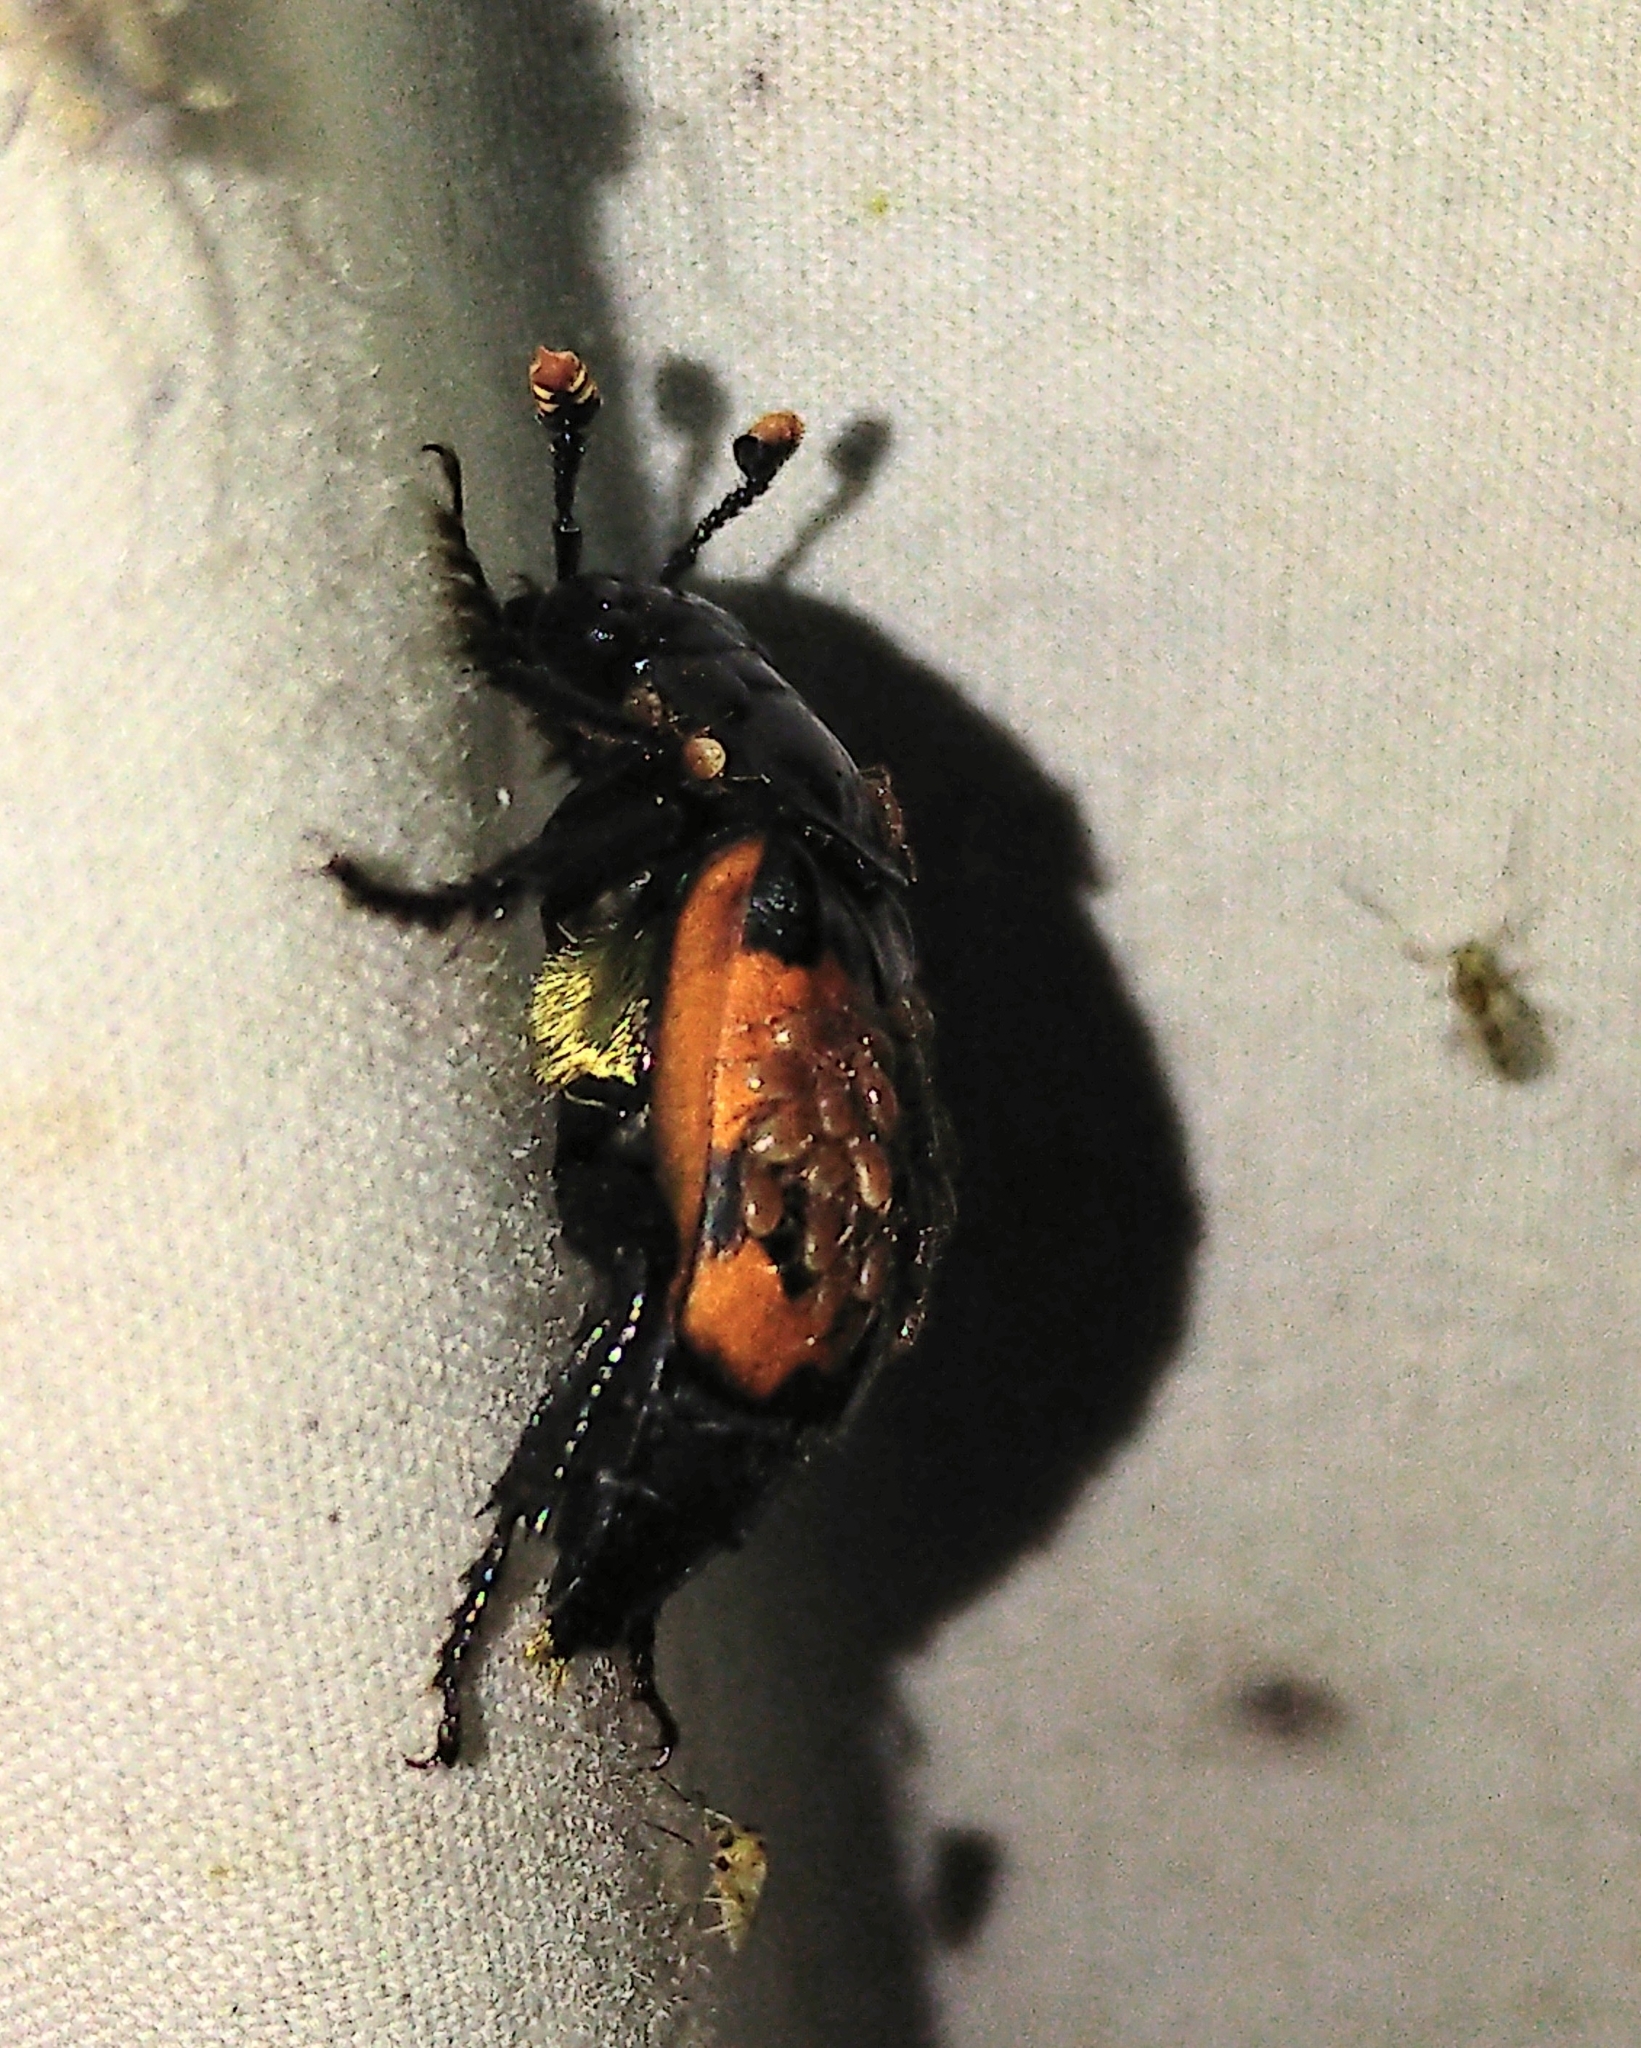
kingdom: Animalia
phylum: Arthropoda
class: Insecta
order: Coleoptera
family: Staphylinidae
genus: Nicrophorus
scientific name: Nicrophorus hybridus
